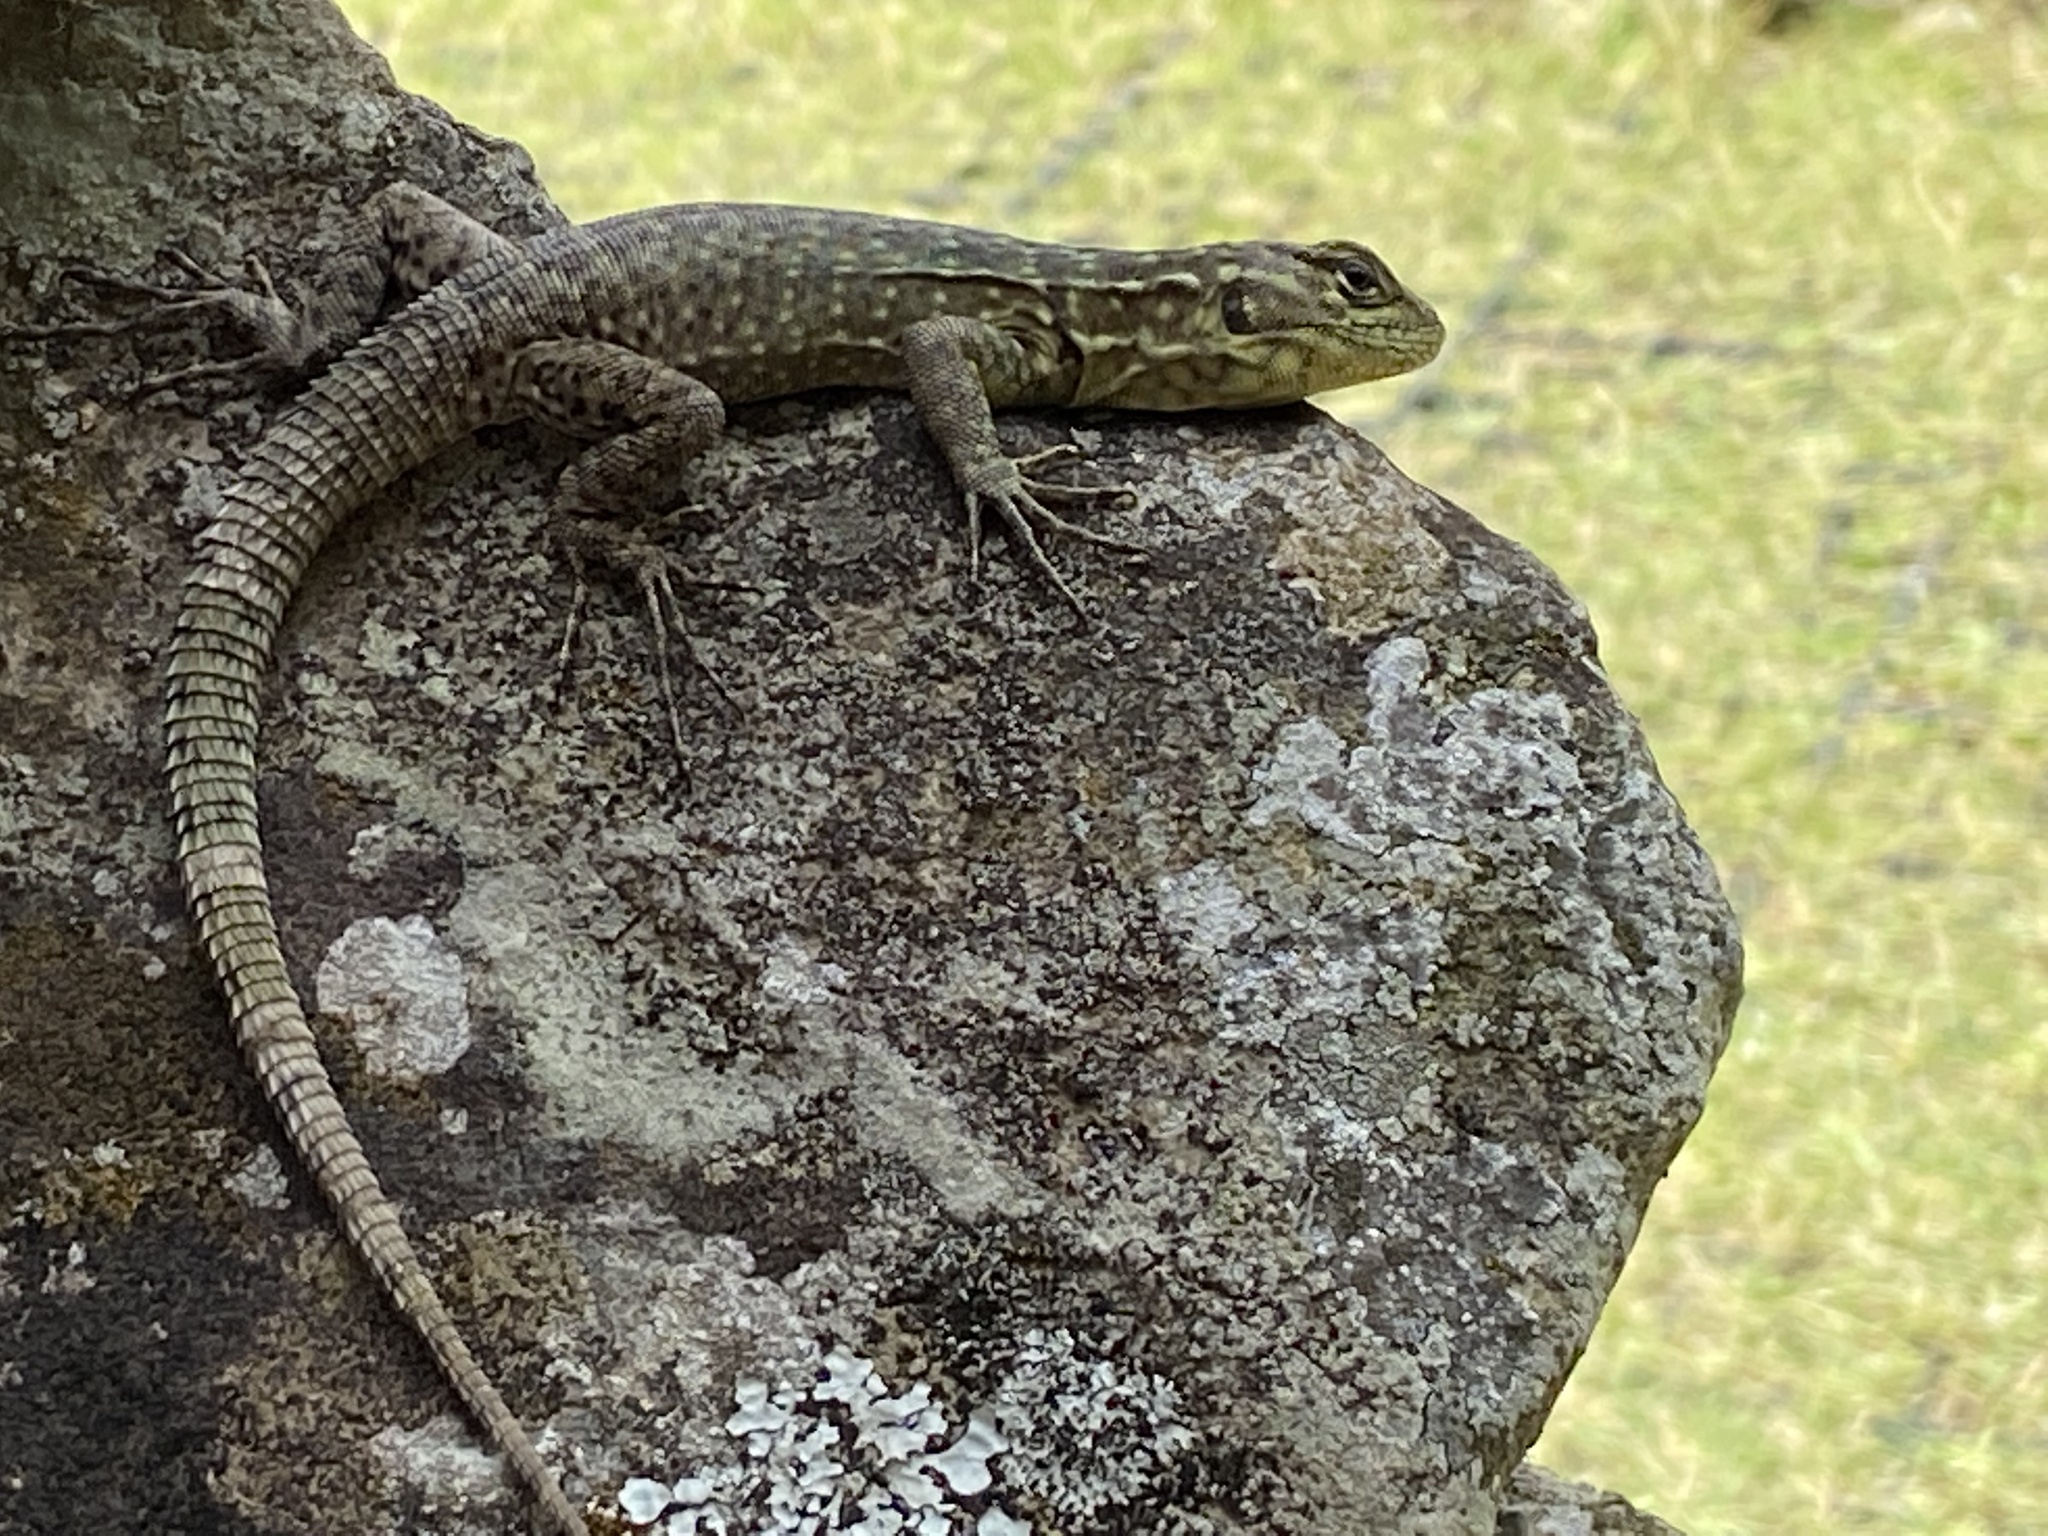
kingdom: Animalia
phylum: Chordata
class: Squamata
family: Tropiduridae
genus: Stenocercus
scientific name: Stenocercus crassicaudatus
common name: Spiny whorltail iguana
